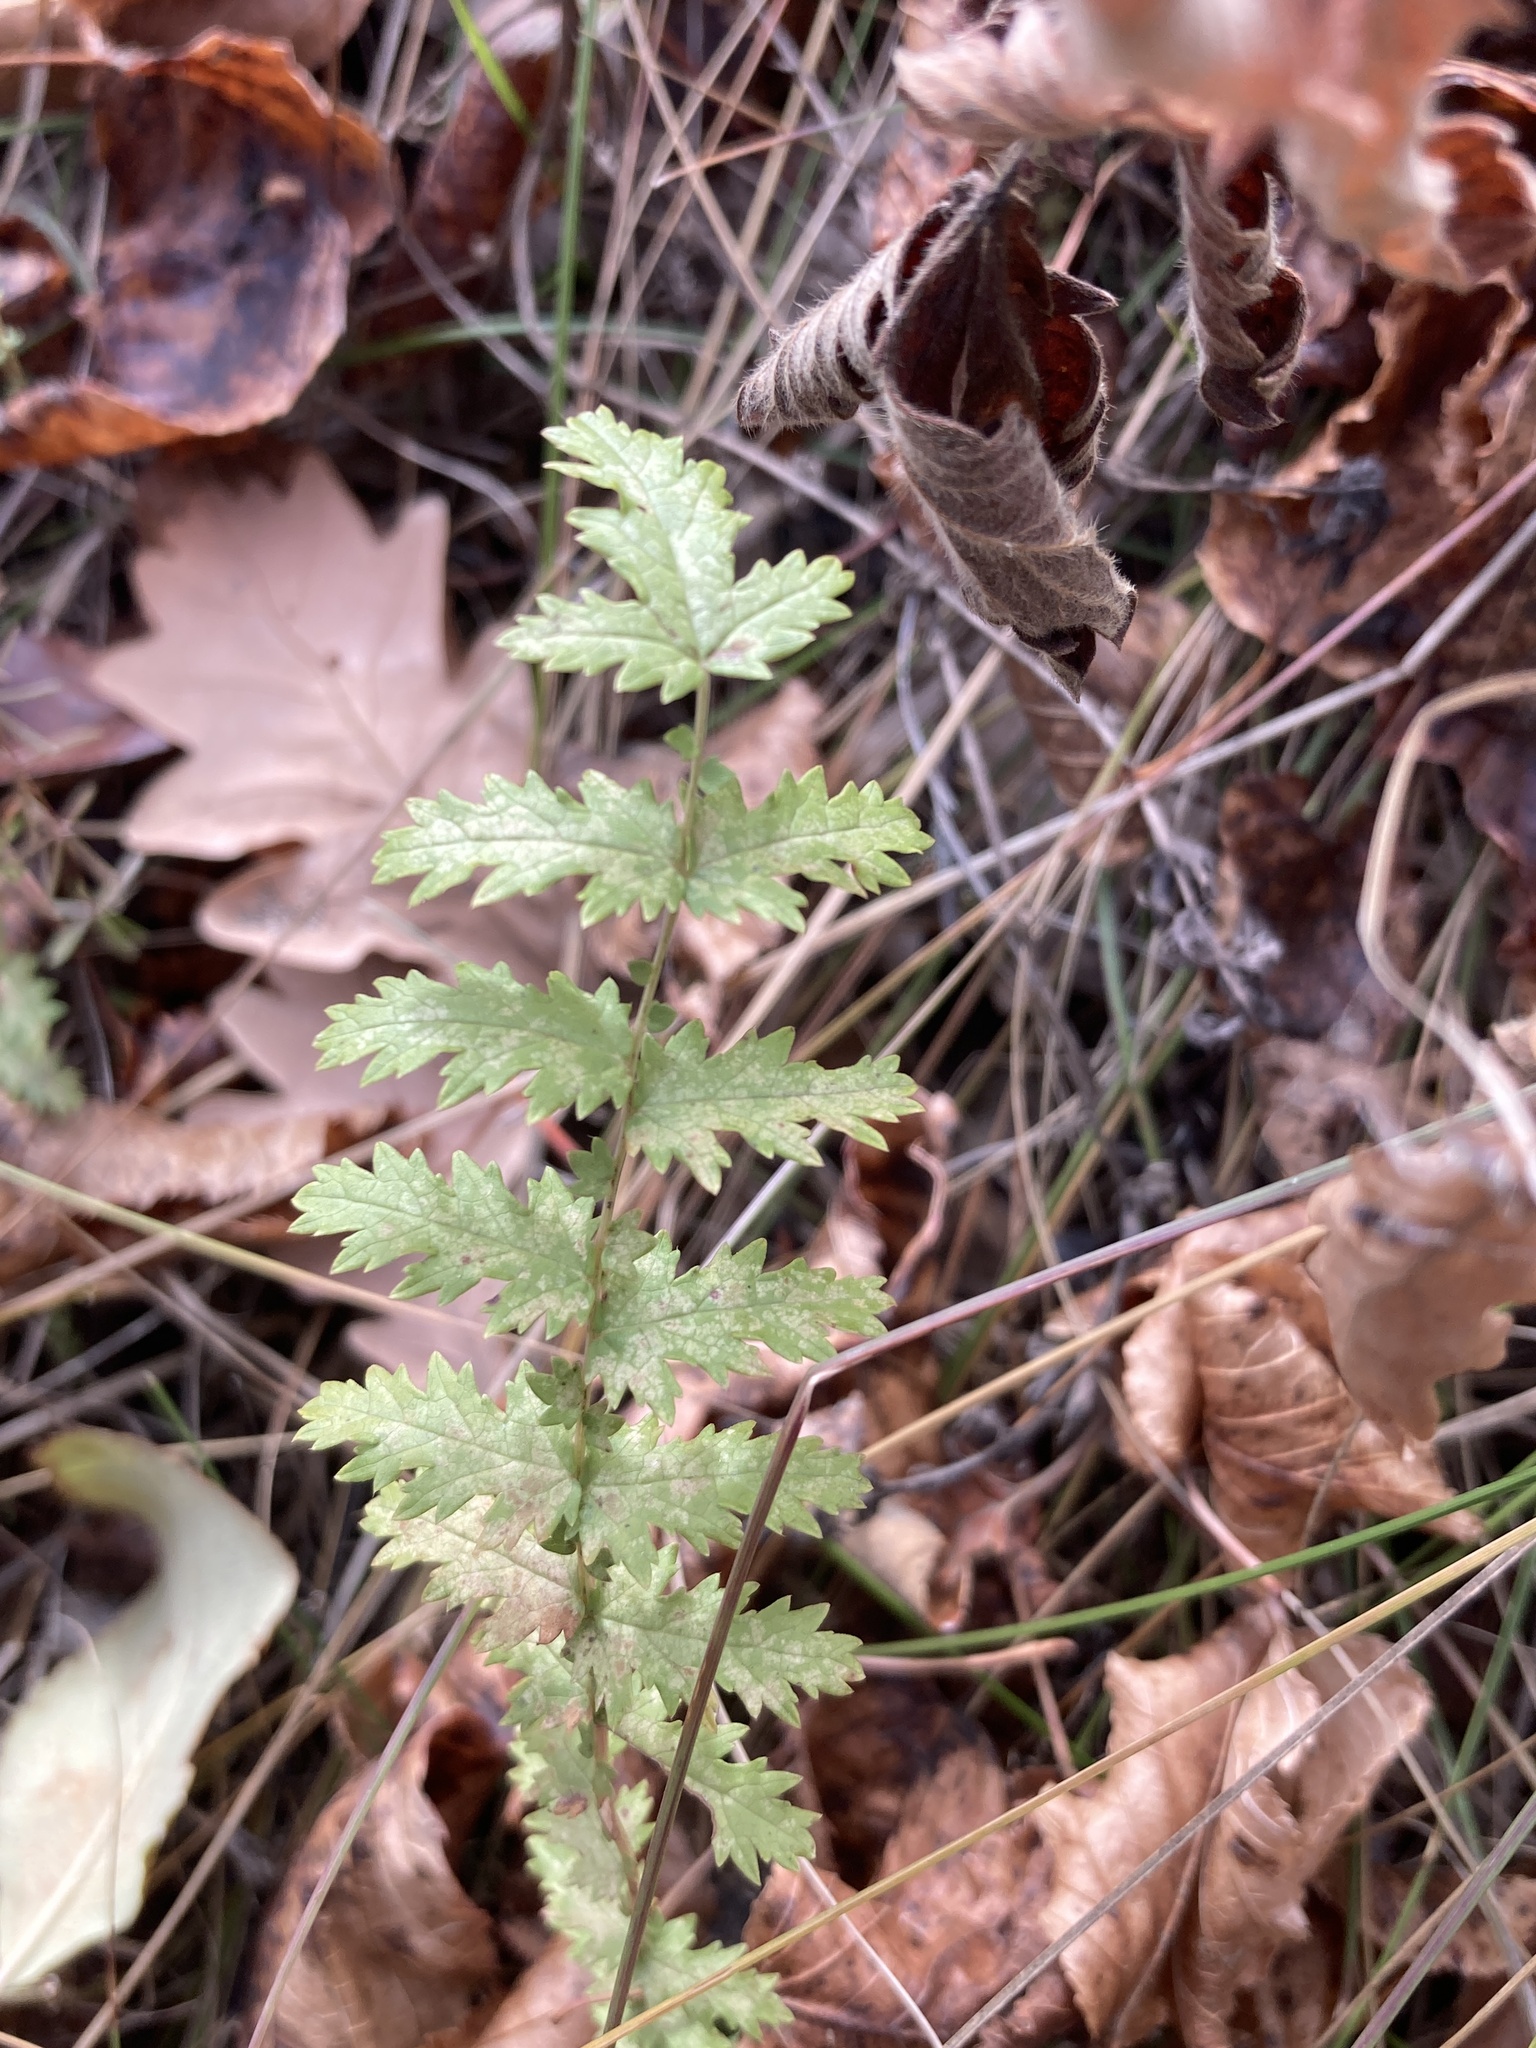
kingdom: Plantae
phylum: Tracheophyta
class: Magnoliopsida
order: Rosales
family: Rosaceae
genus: Filipendula
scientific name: Filipendula vulgaris
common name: Dropwort
